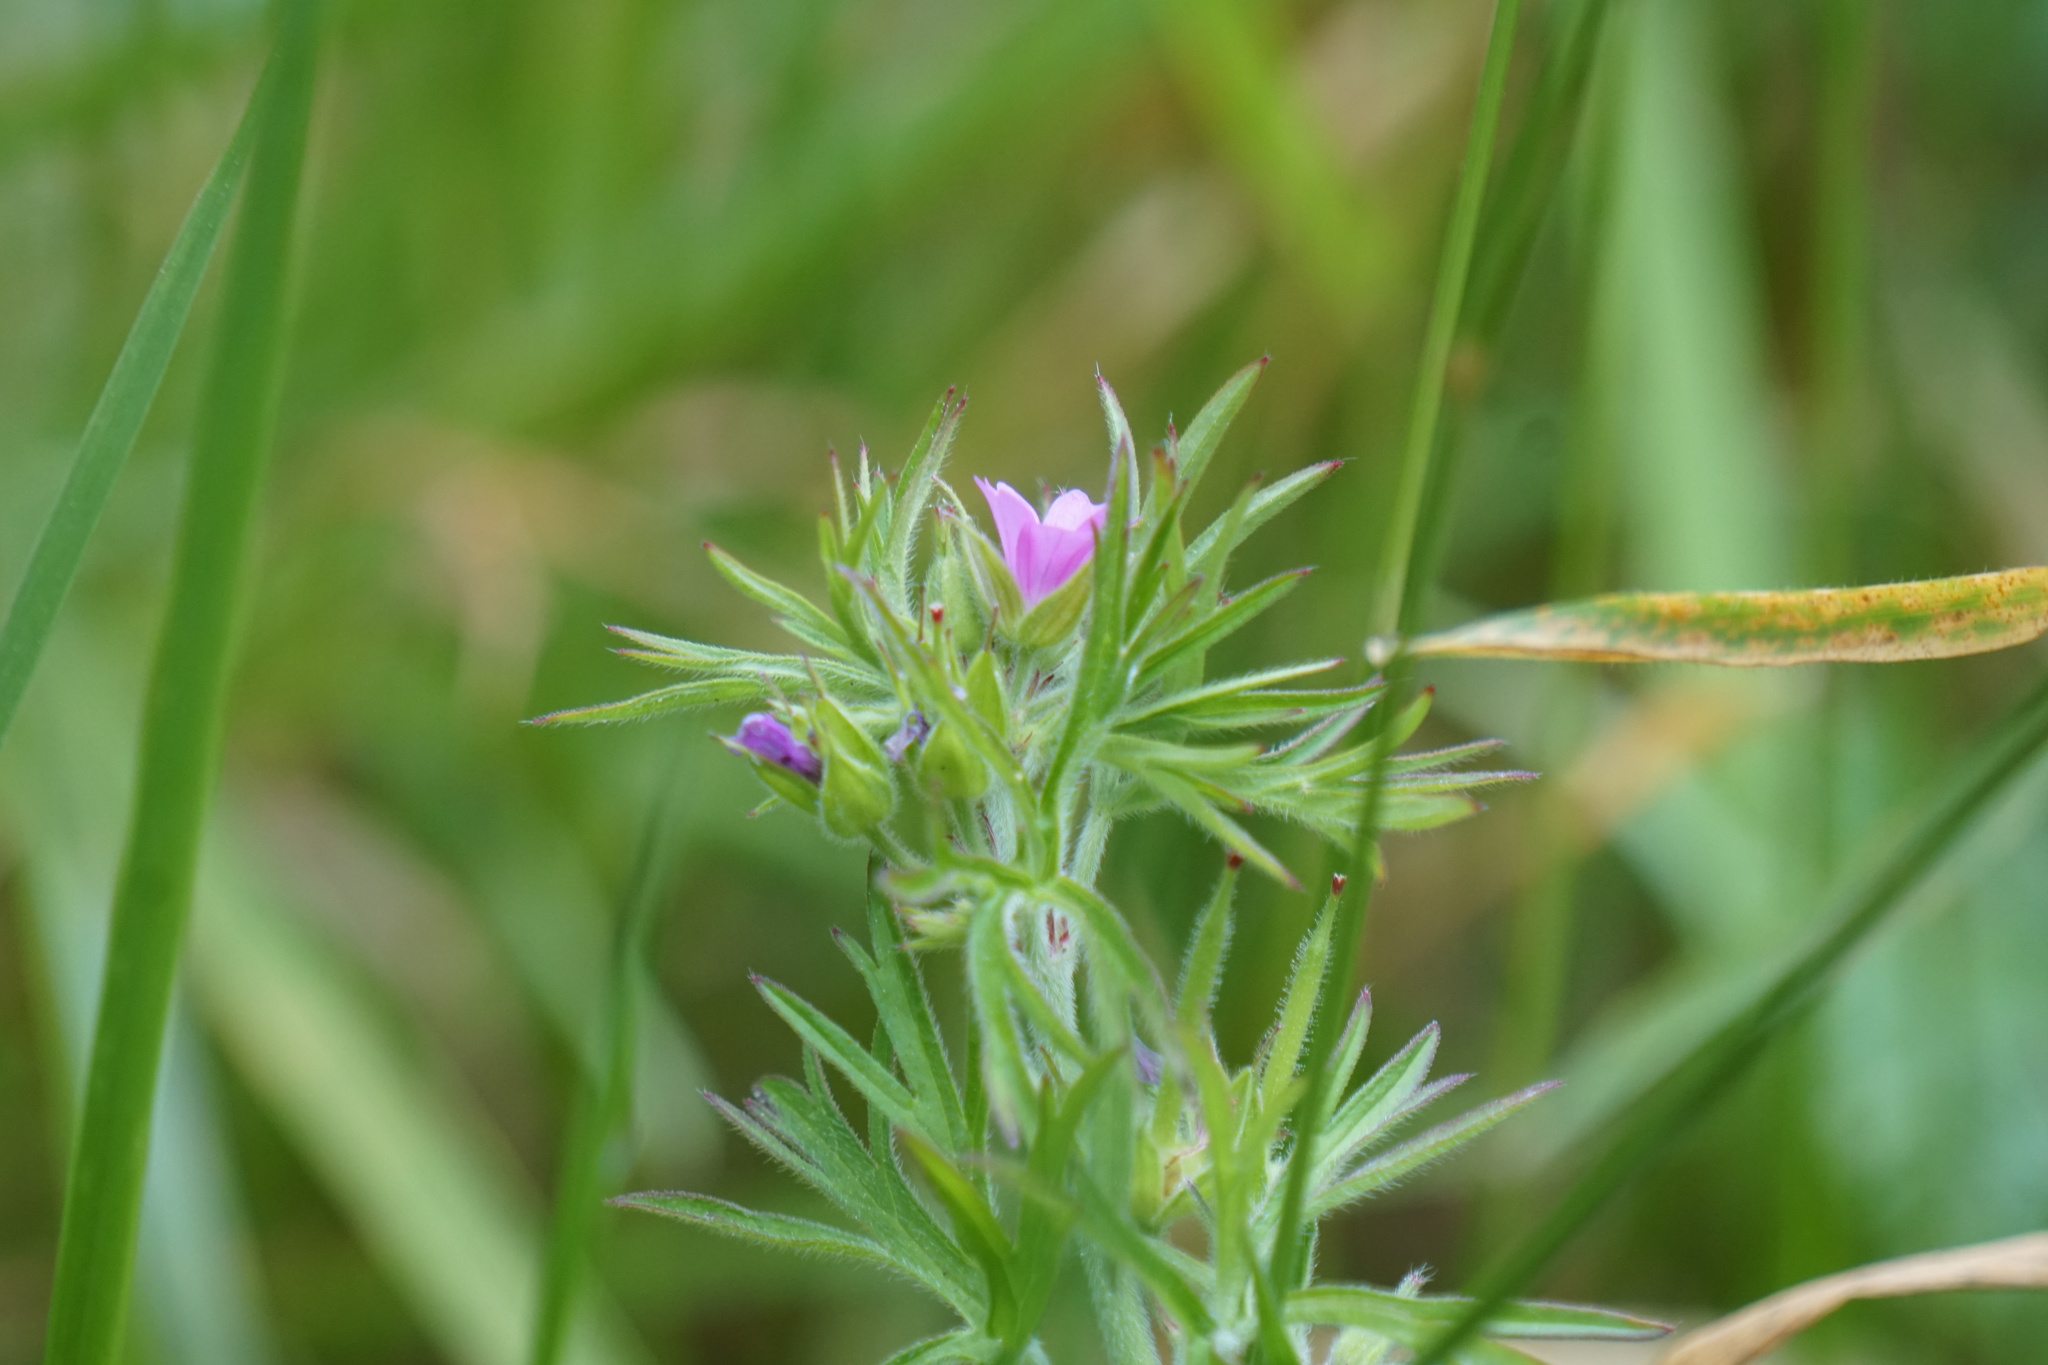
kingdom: Plantae
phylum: Tracheophyta
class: Magnoliopsida
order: Geraniales
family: Geraniaceae
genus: Geranium
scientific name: Geranium dissectum
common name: Cut-leaved crane's-bill
